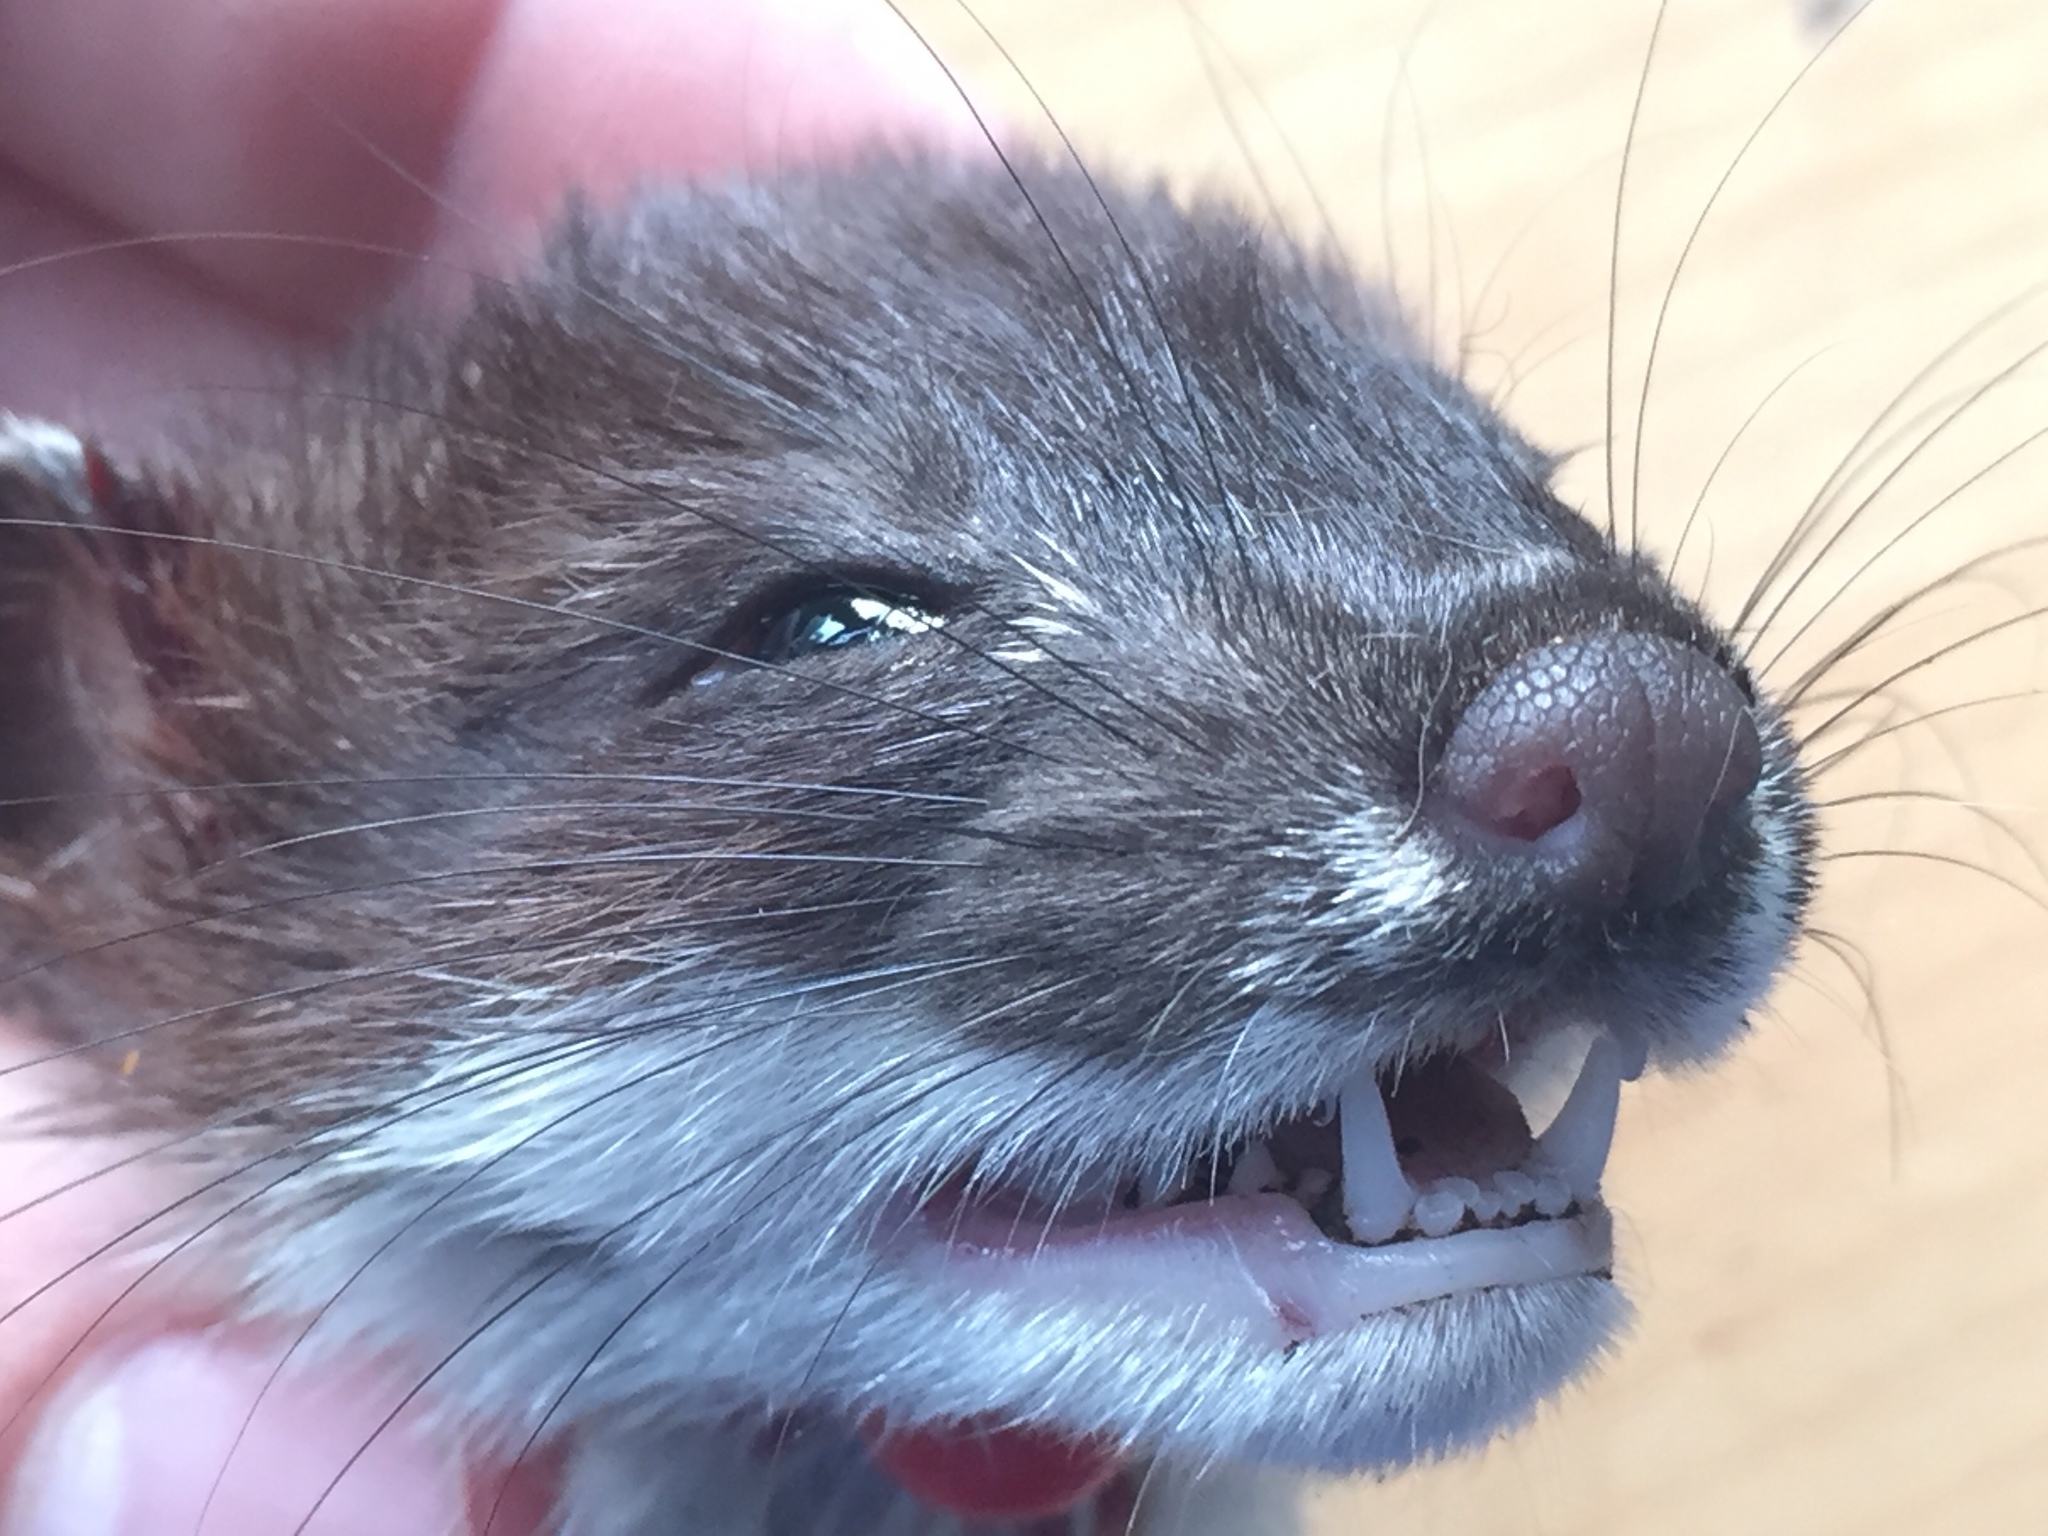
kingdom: Animalia
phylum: Chordata
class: Mammalia
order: Carnivora
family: Mustelidae
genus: Mustela
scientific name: Mustela erminea
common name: Stoat
